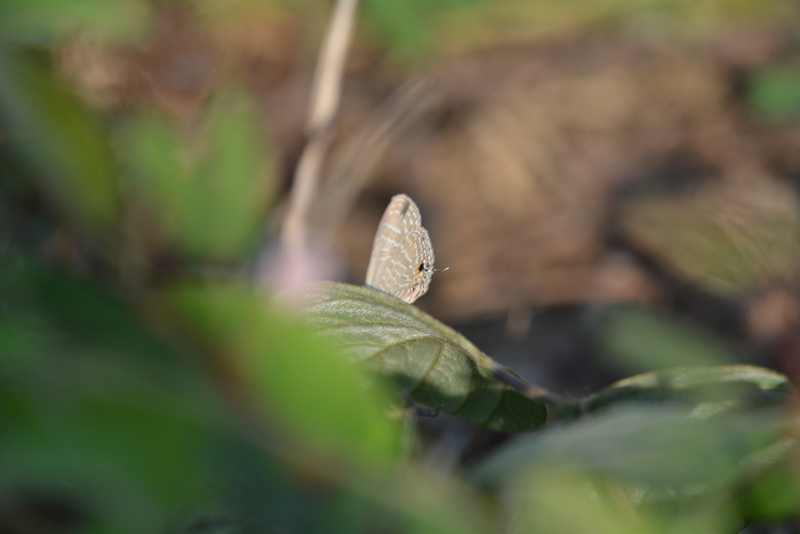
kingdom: Animalia
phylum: Arthropoda
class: Insecta
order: Lepidoptera
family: Lycaenidae
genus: Jamides
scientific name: Jamides celeno
